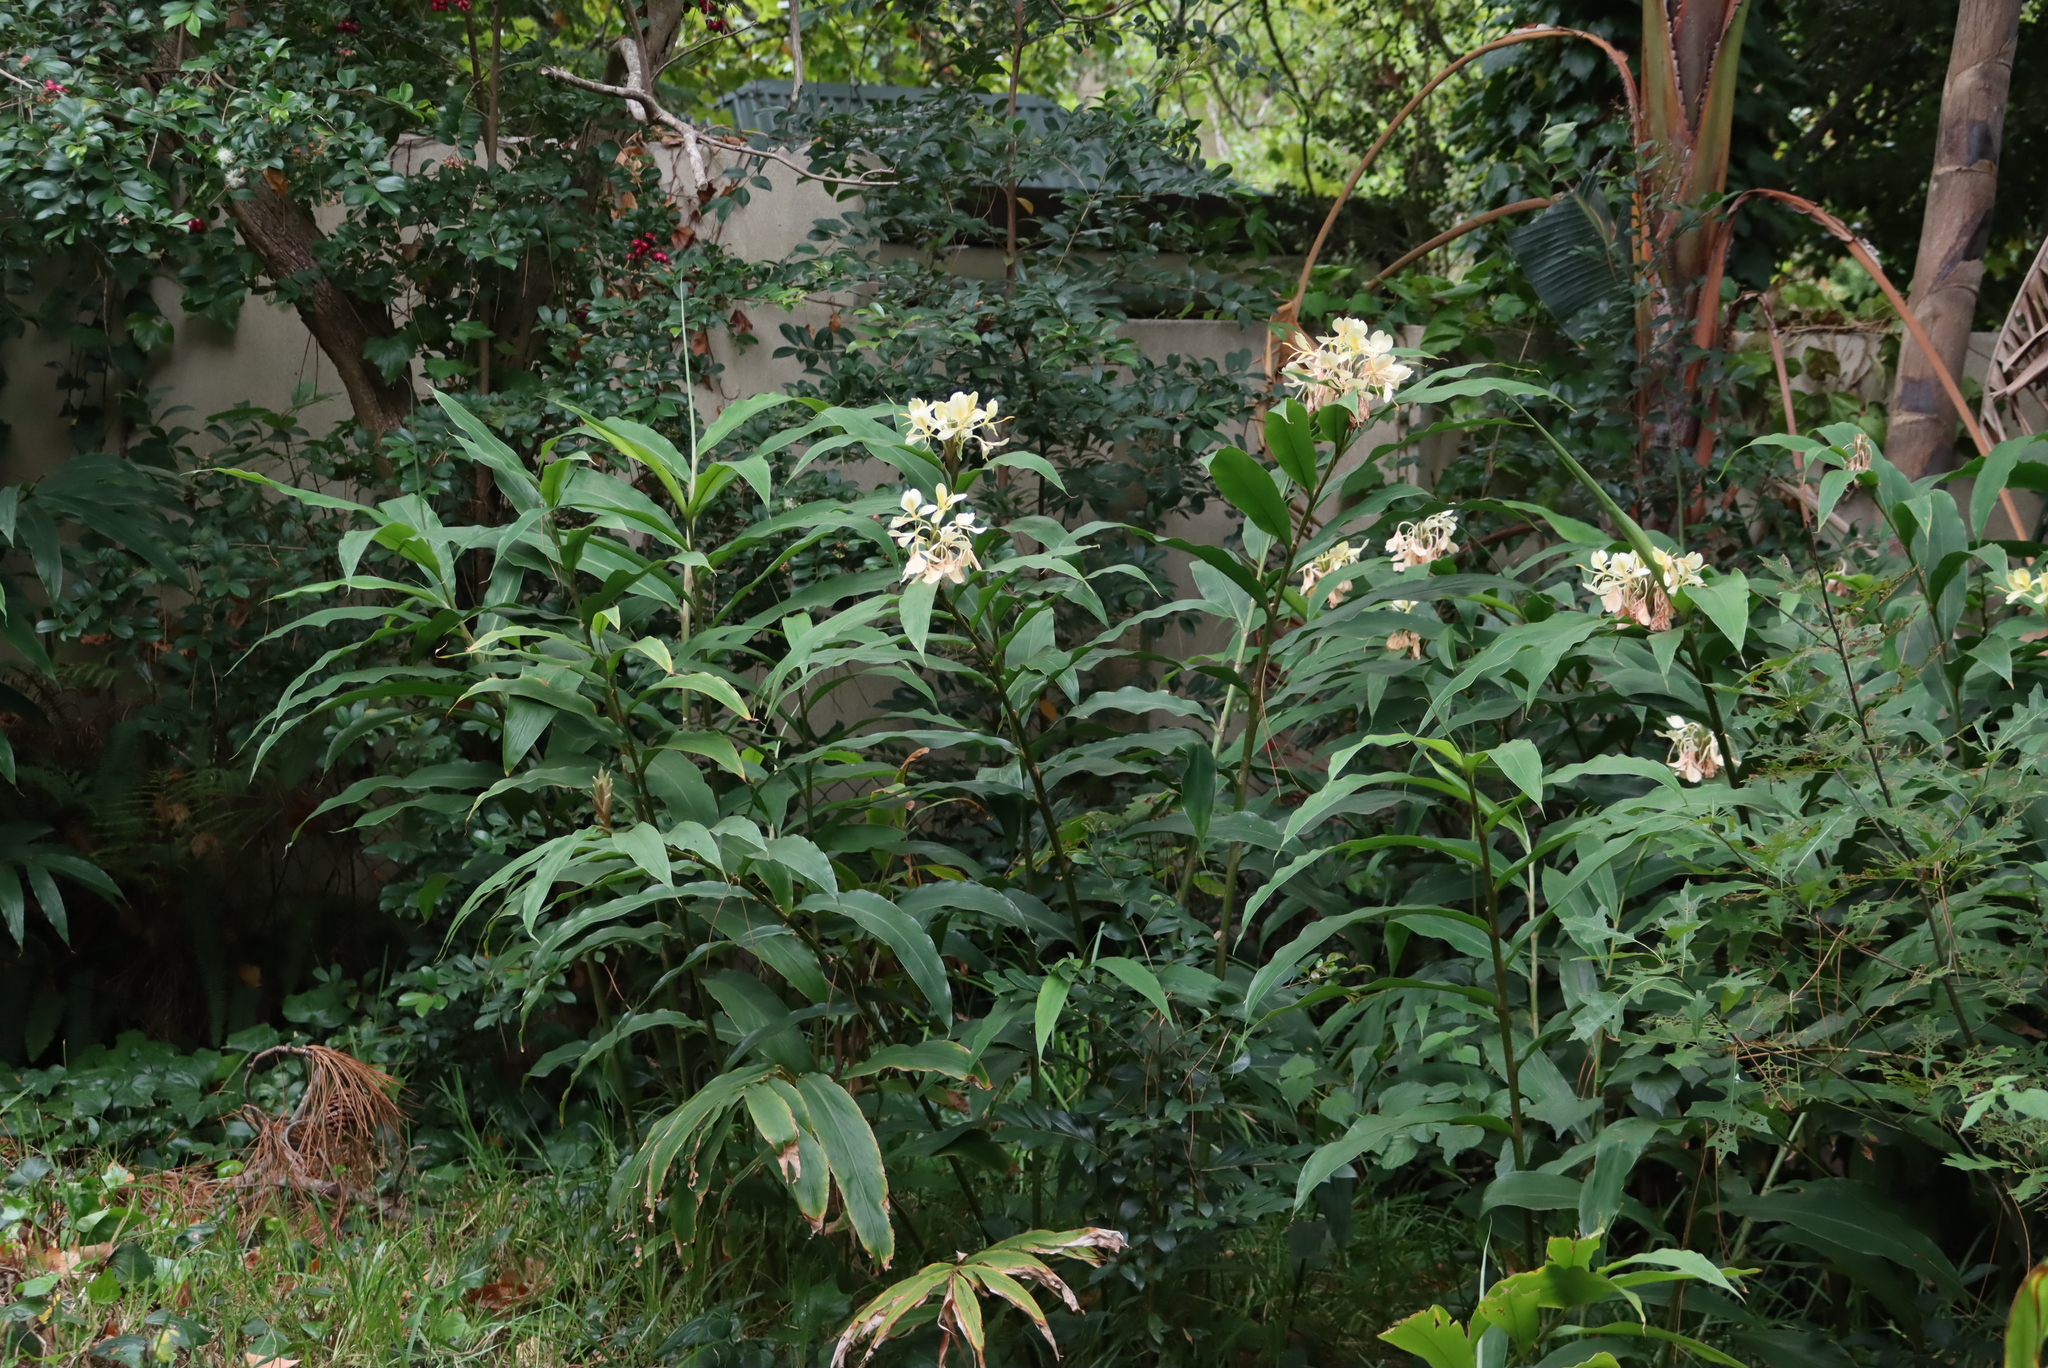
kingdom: Plantae
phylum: Tracheophyta
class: Liliopsida
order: Zingiberales
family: Zingiberaceae
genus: Hedychium
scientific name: Hedychium flavescens
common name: Yellow ginger
